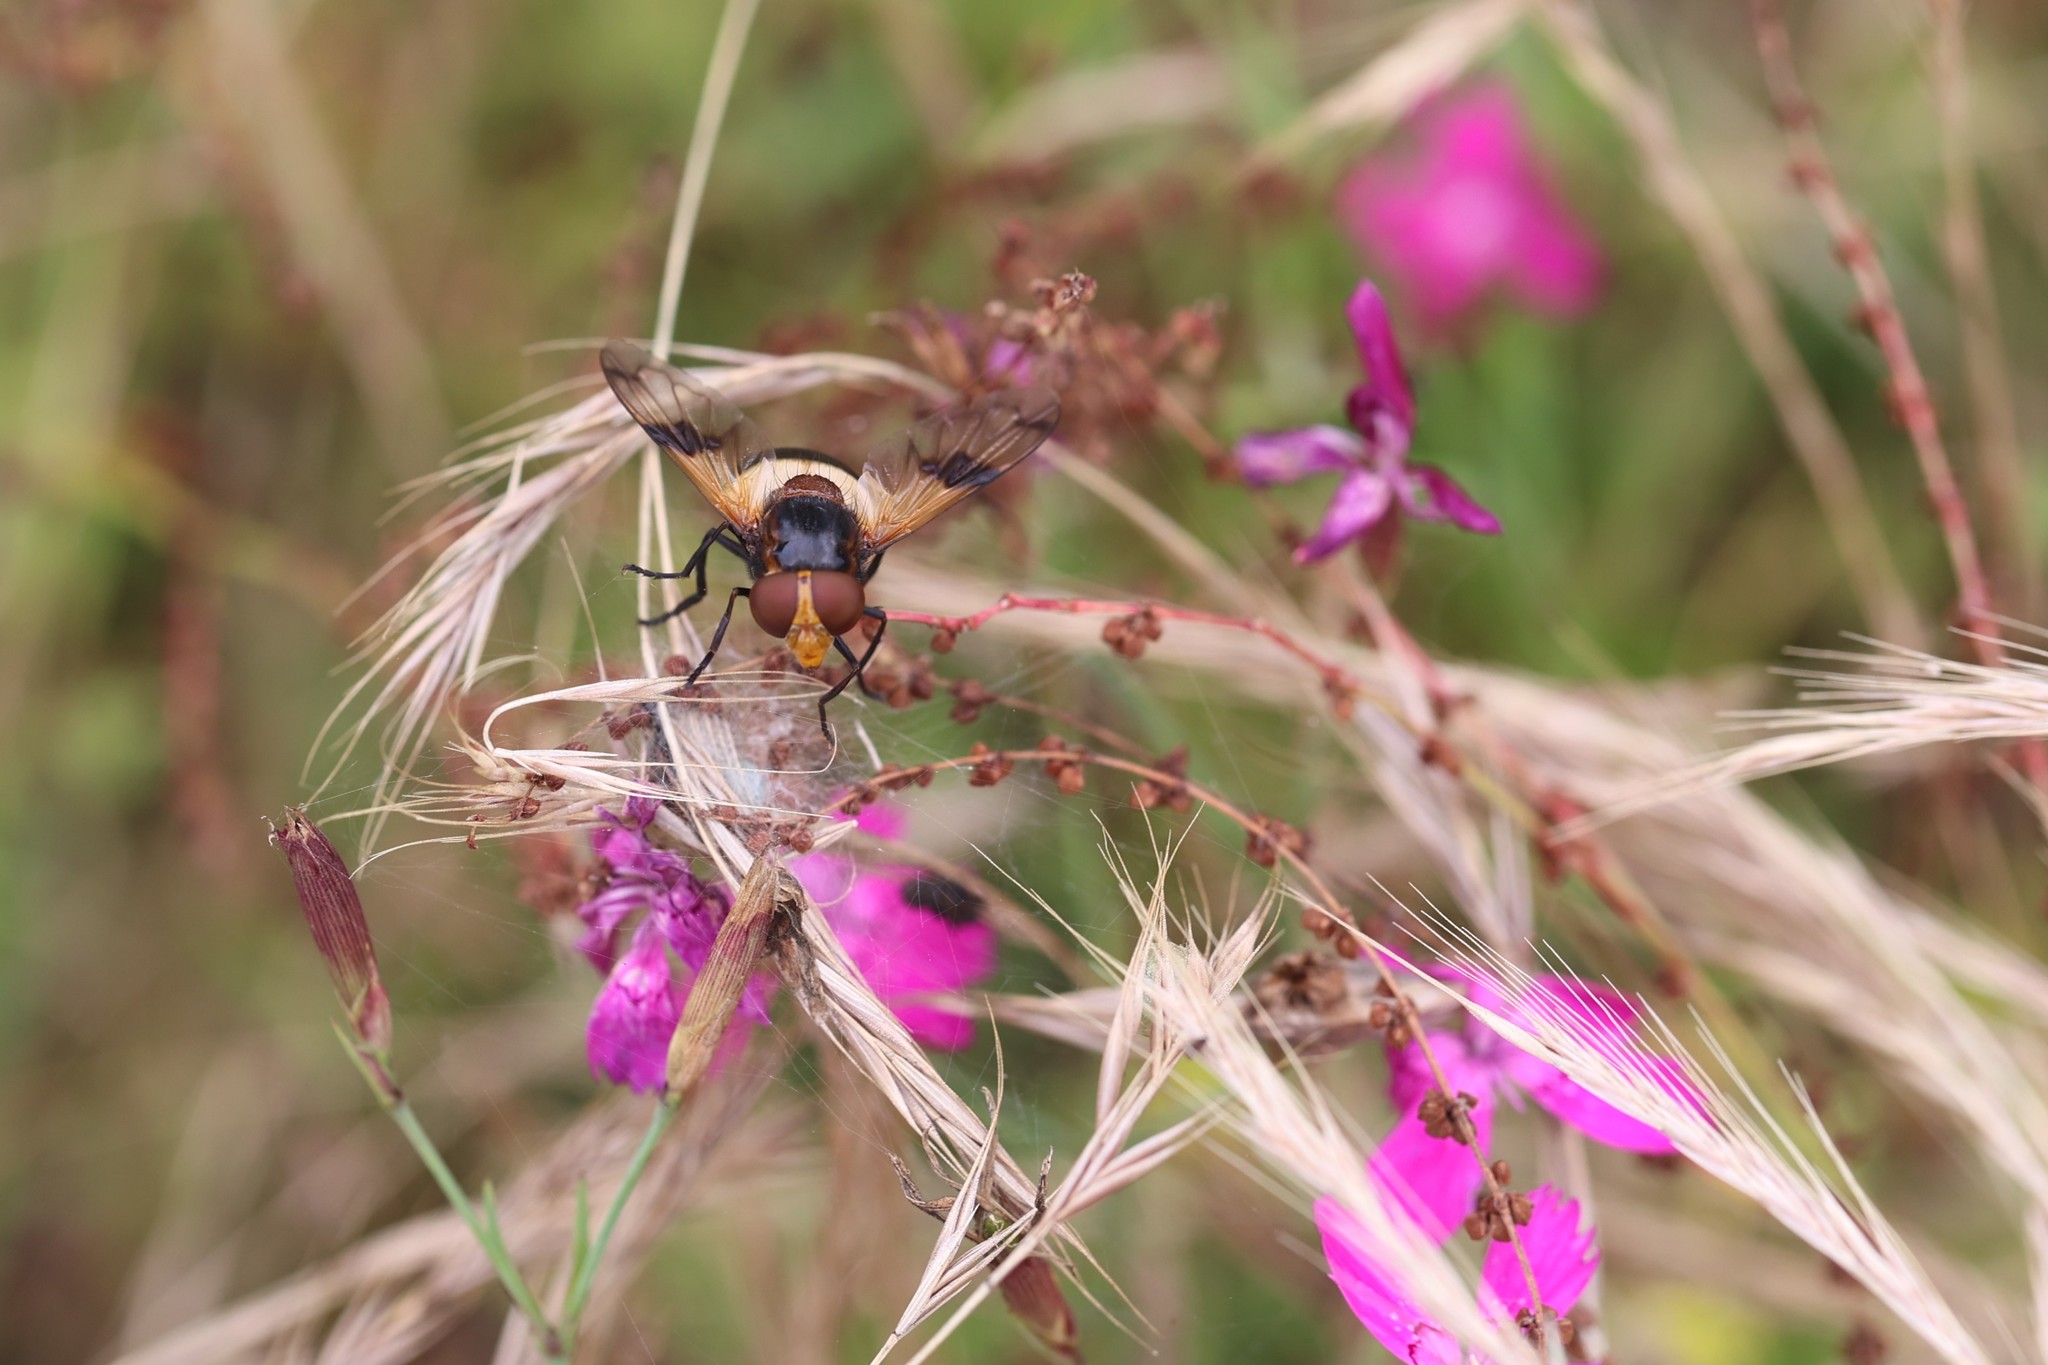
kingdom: Animalia
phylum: Arthropoda
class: Insecta
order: Diptera
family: Syrphidae
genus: Volucella
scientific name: Volucella pellucens
